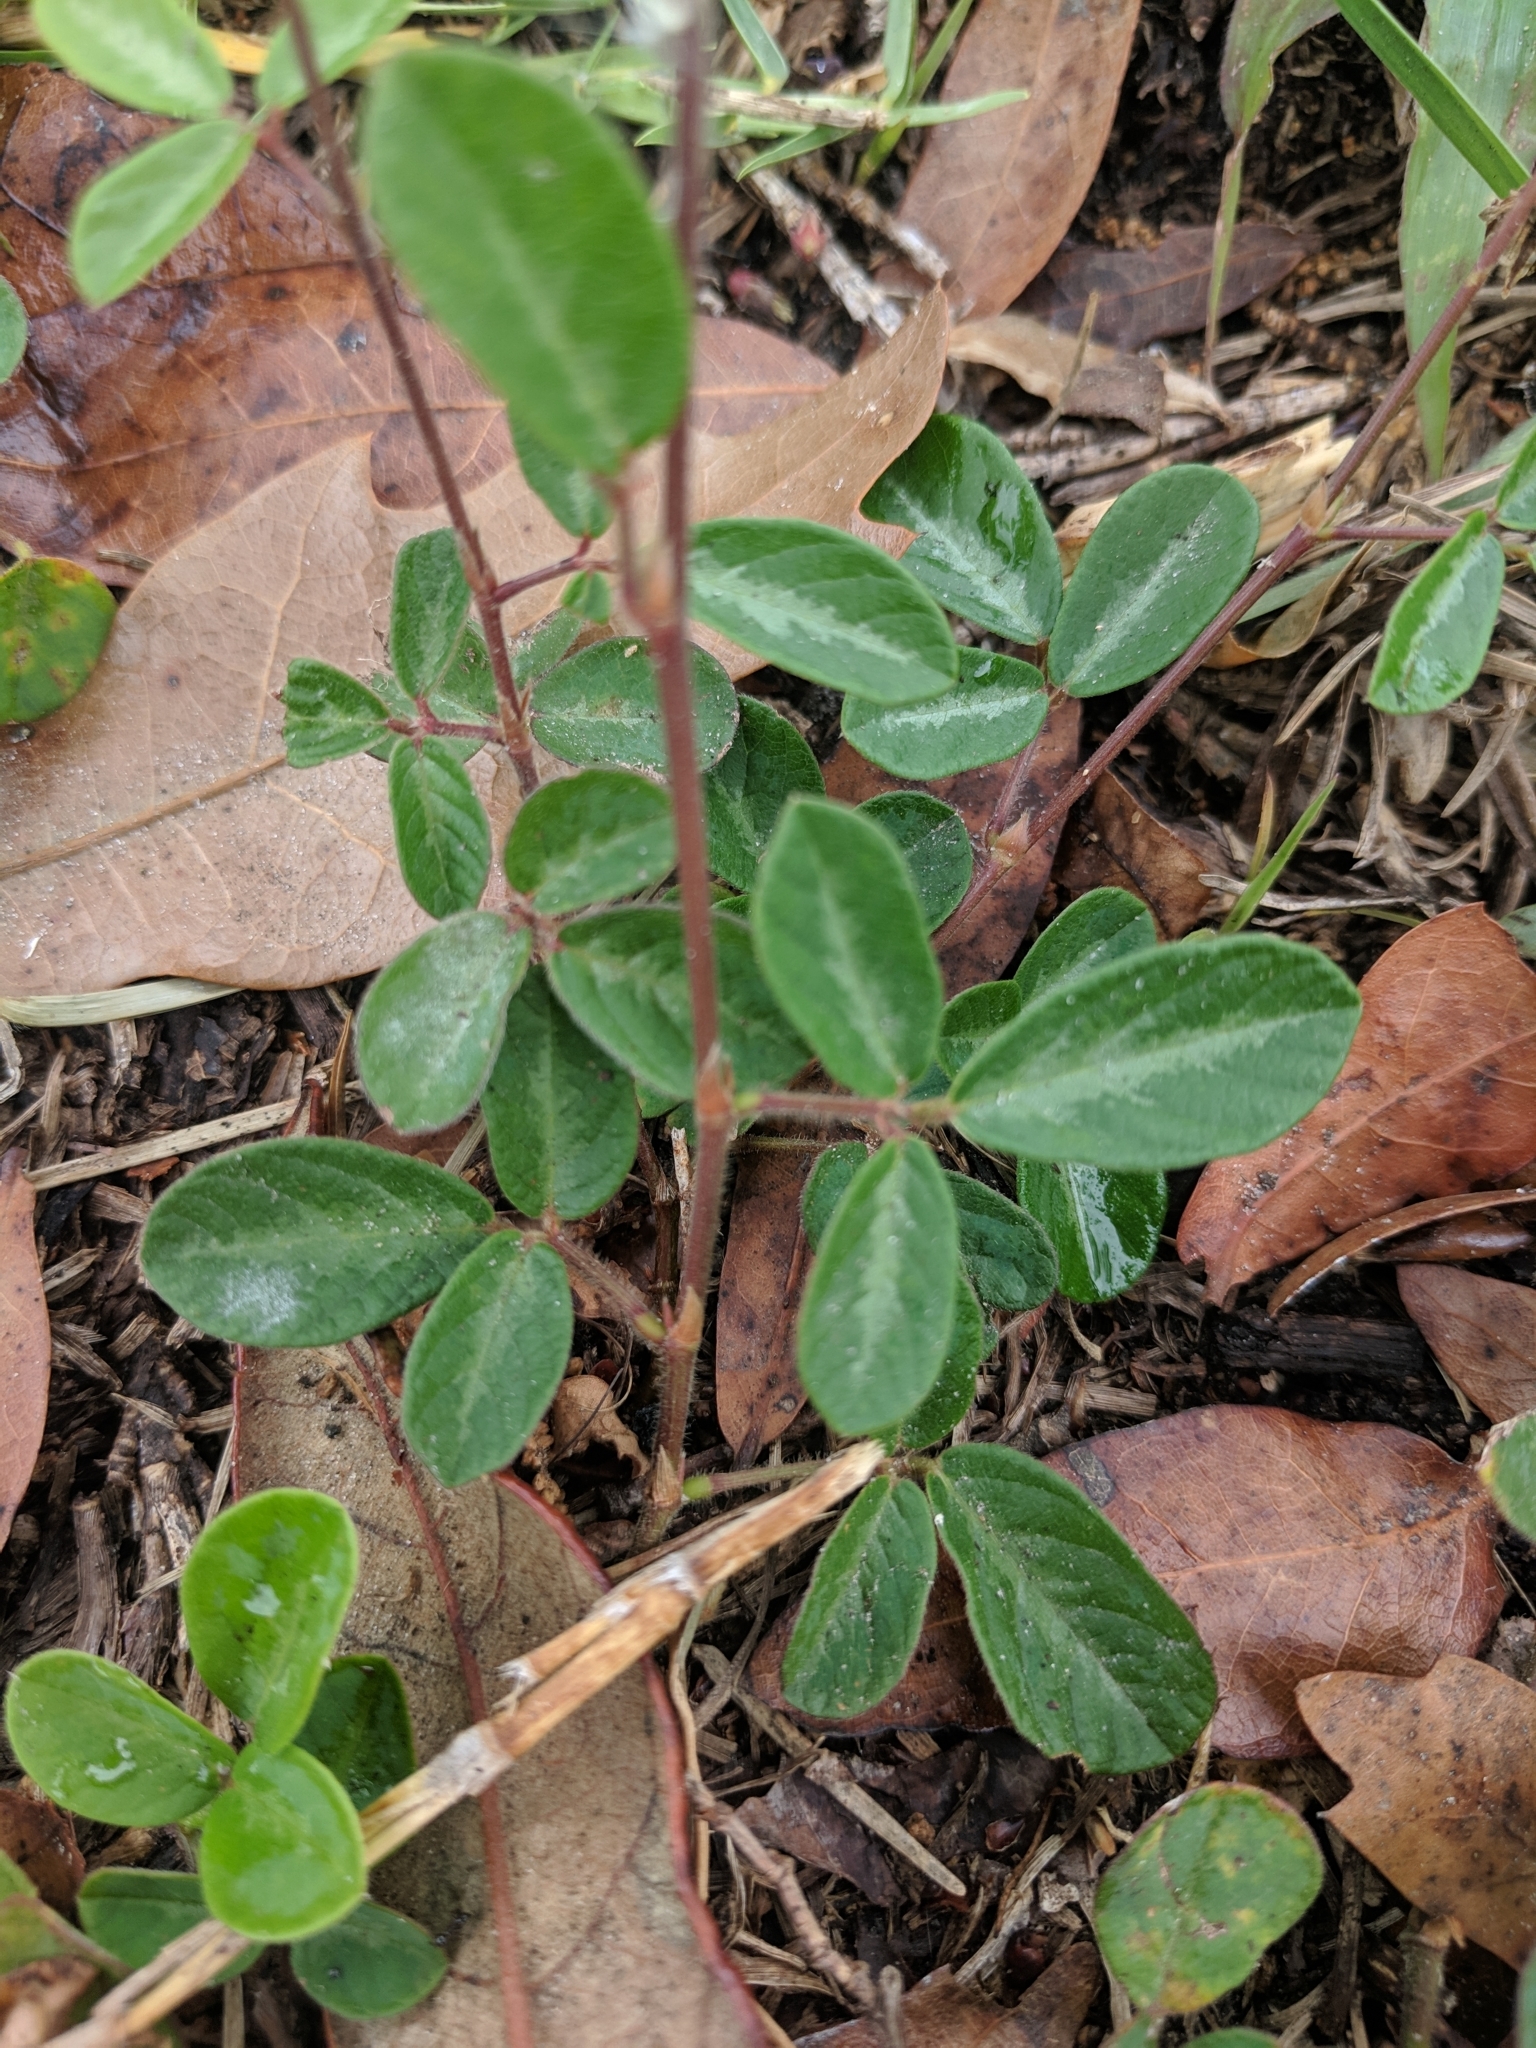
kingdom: Plantae
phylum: Tracheophyta
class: Magnoliopsida
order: Fabales
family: Fabaceae
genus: Desmodium
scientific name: Desmodium incanum
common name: Tickclover
